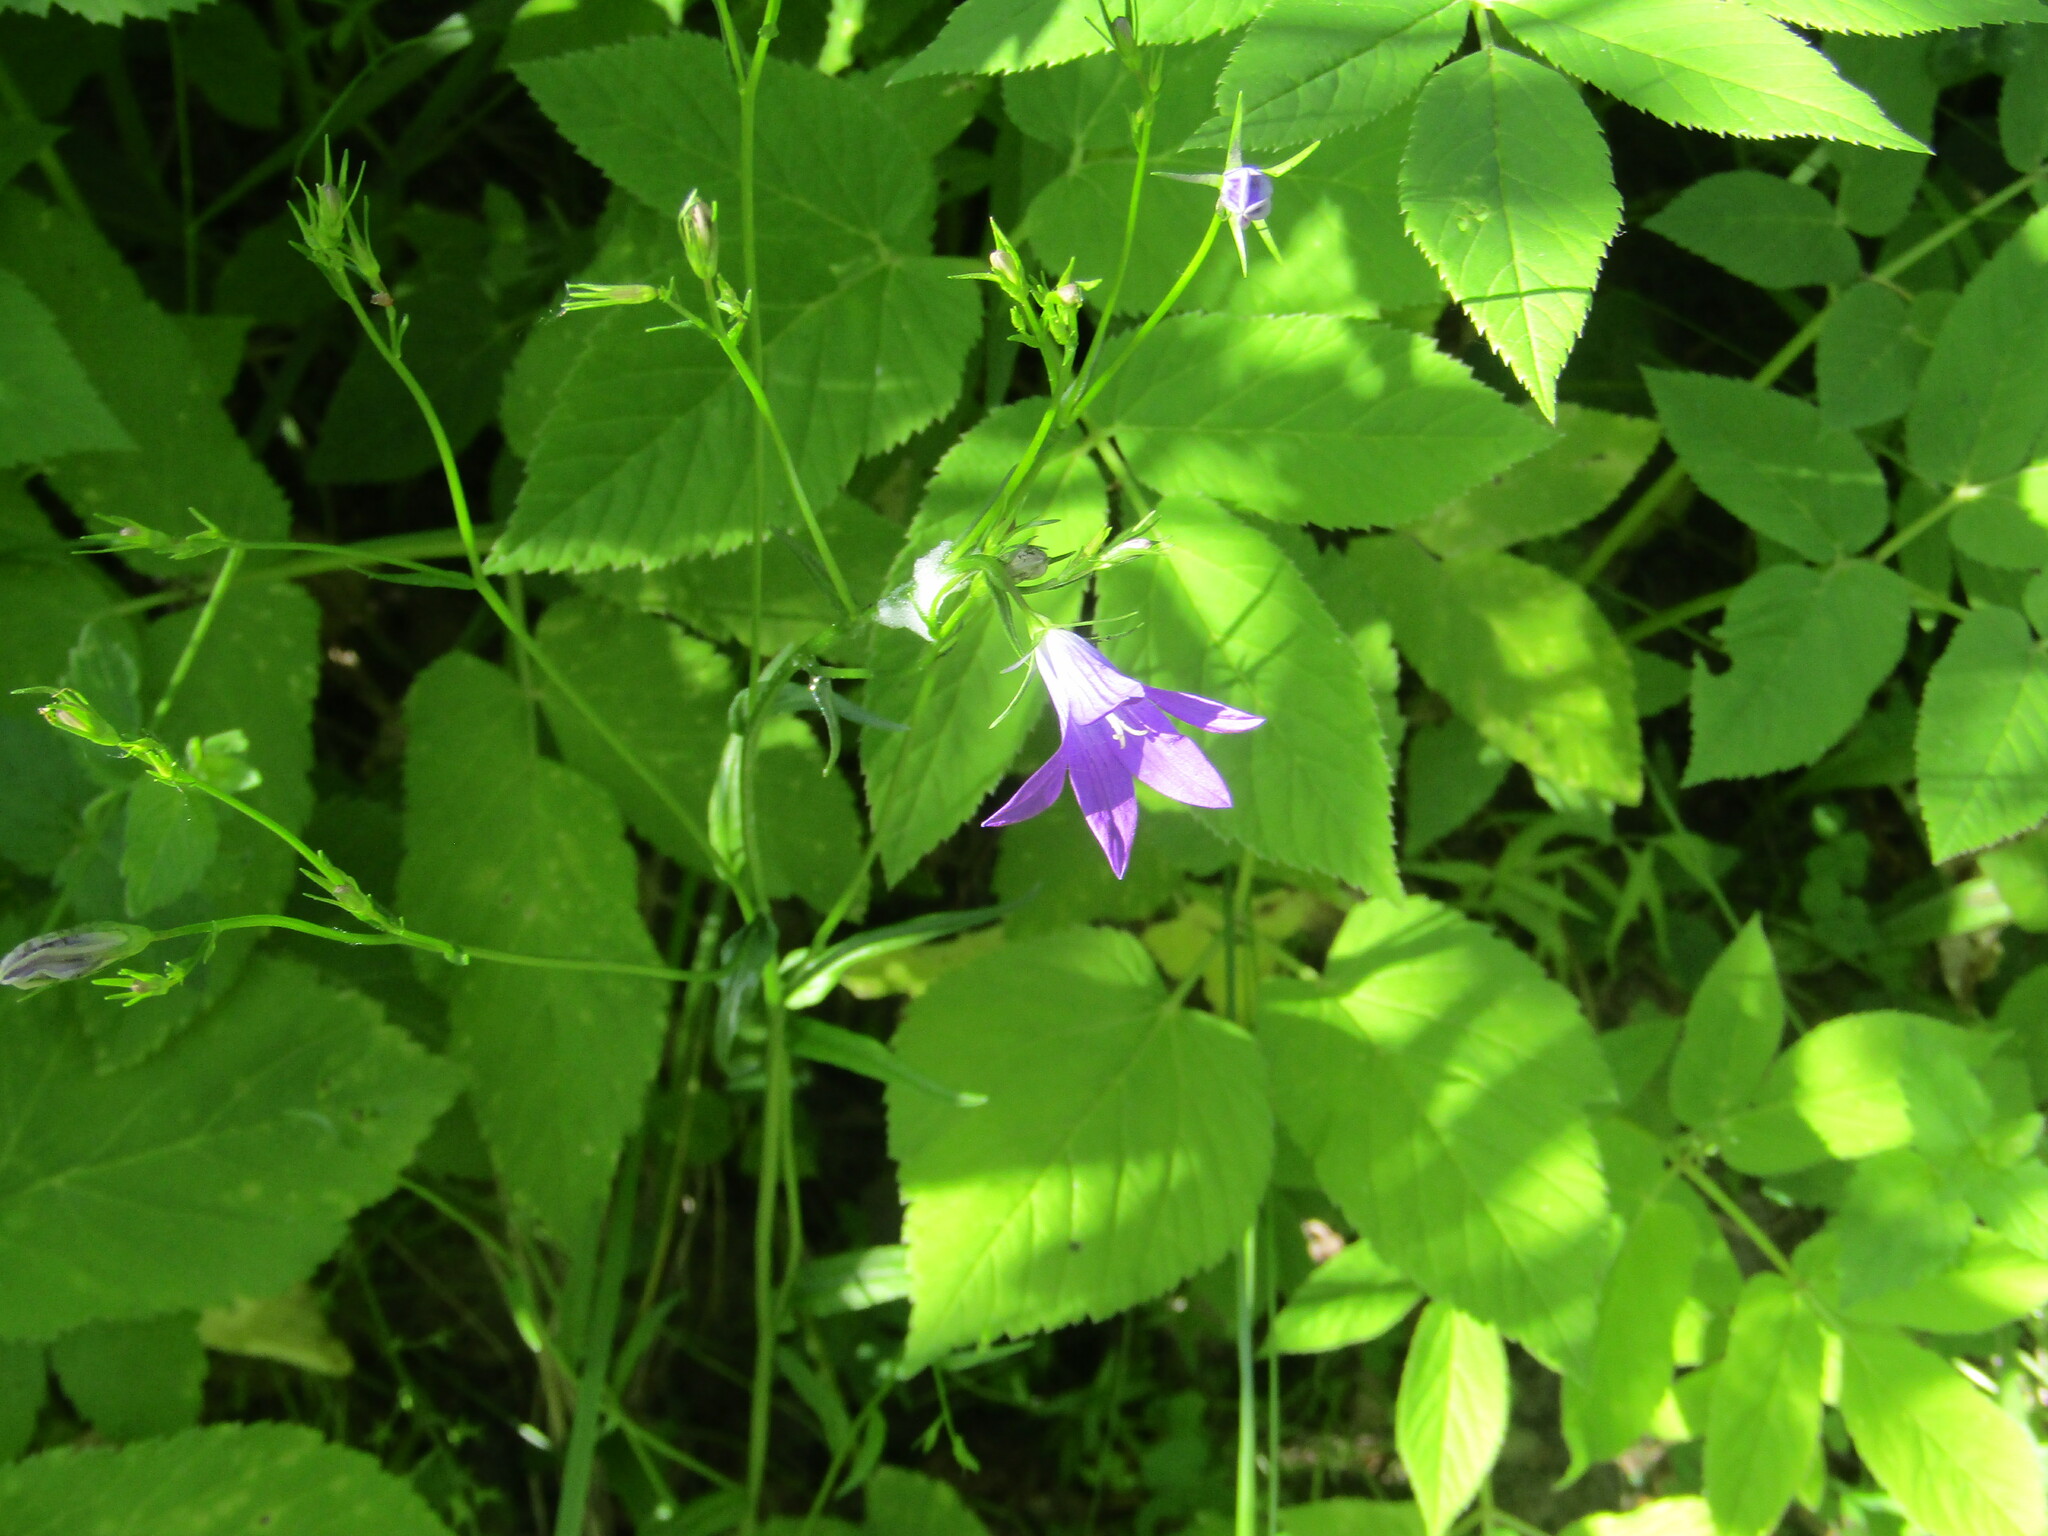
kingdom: Plantae
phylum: Tracheophyta
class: Magnoliopsida
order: Asterales
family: Campanulaceae
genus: Campanula
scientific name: Campanula patula
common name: Spreading bellflower
